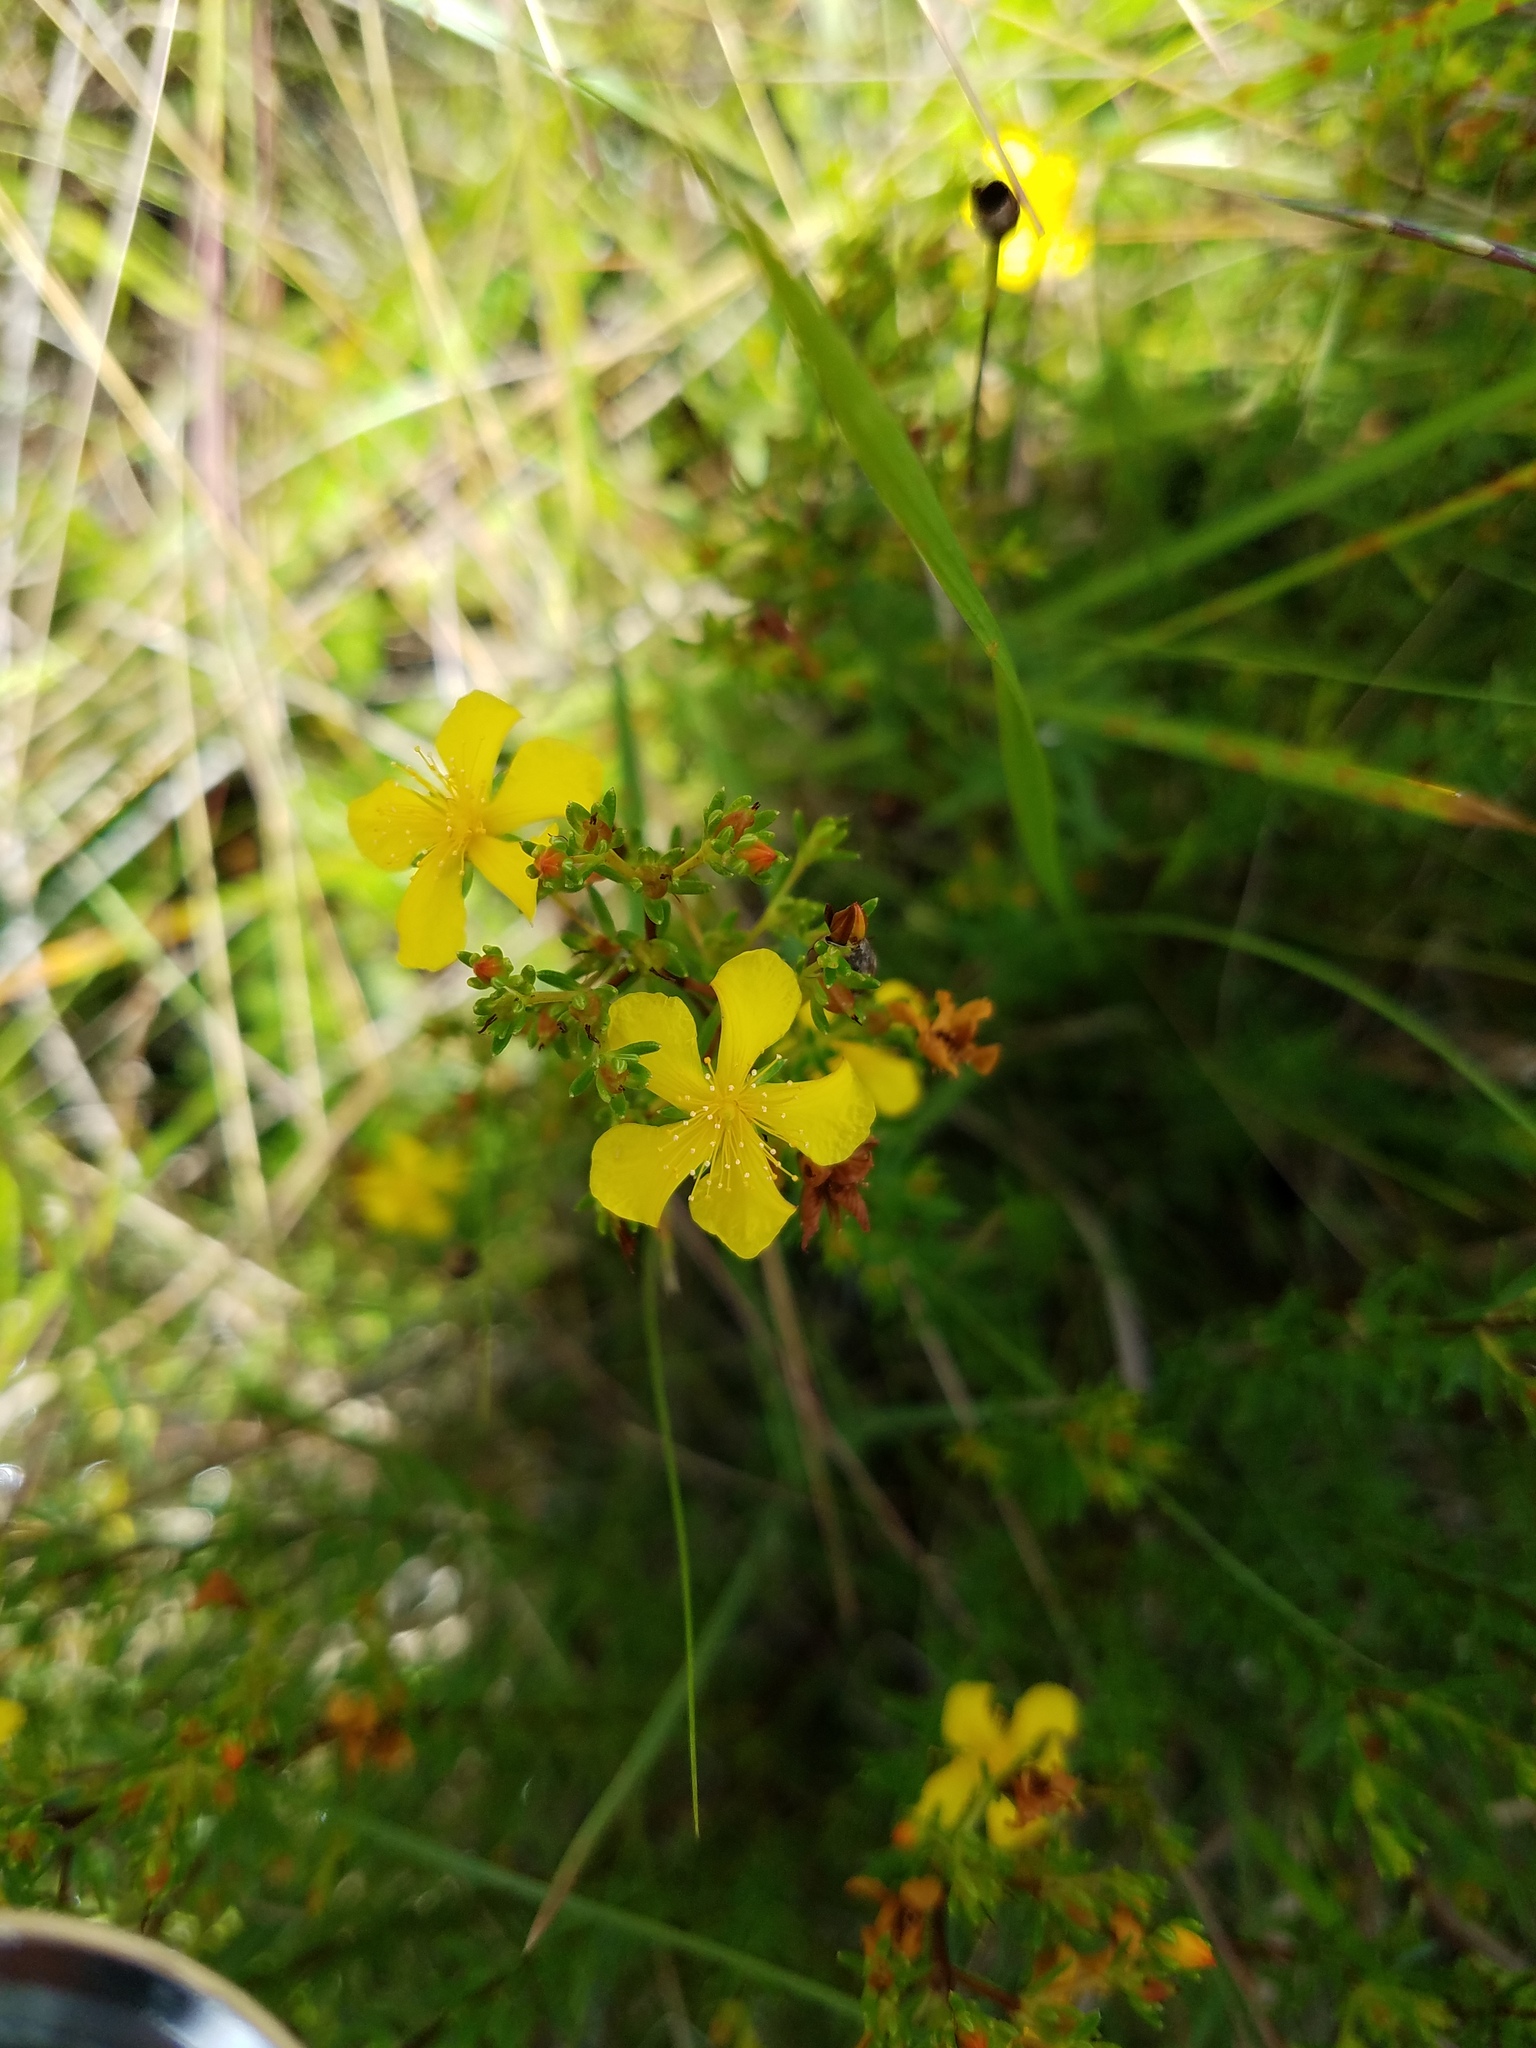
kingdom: Plantae
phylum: Tracheophyta
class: Magnoliopsida
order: Malpighiales
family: Hypericaceae
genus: Hypericum
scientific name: Hypericum brachyphyllum
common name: Coastal plain st. john's-wort
